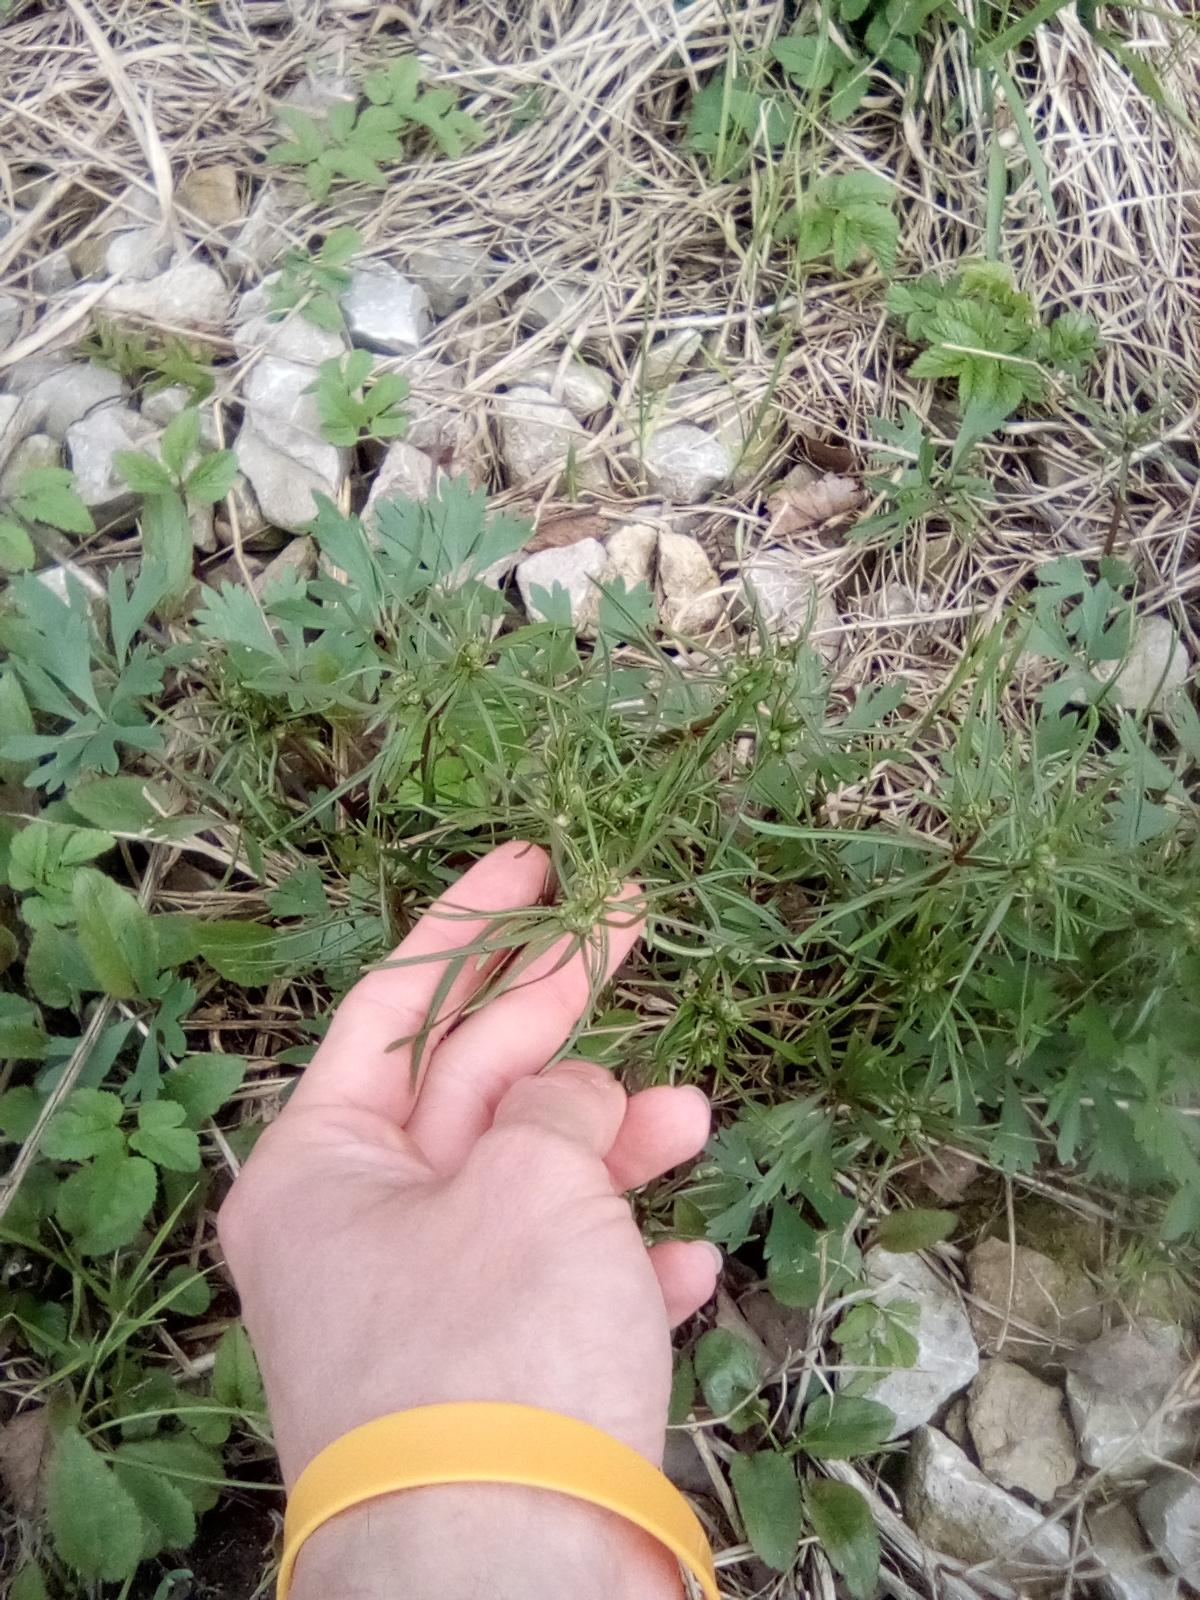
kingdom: Plantae
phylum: Tracheophyta
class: Magnoliopsida
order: Ranunculales
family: Ranunculaceae
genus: Ranunculus
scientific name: Ranunculus auricomus
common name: Goldilocks buttercup
